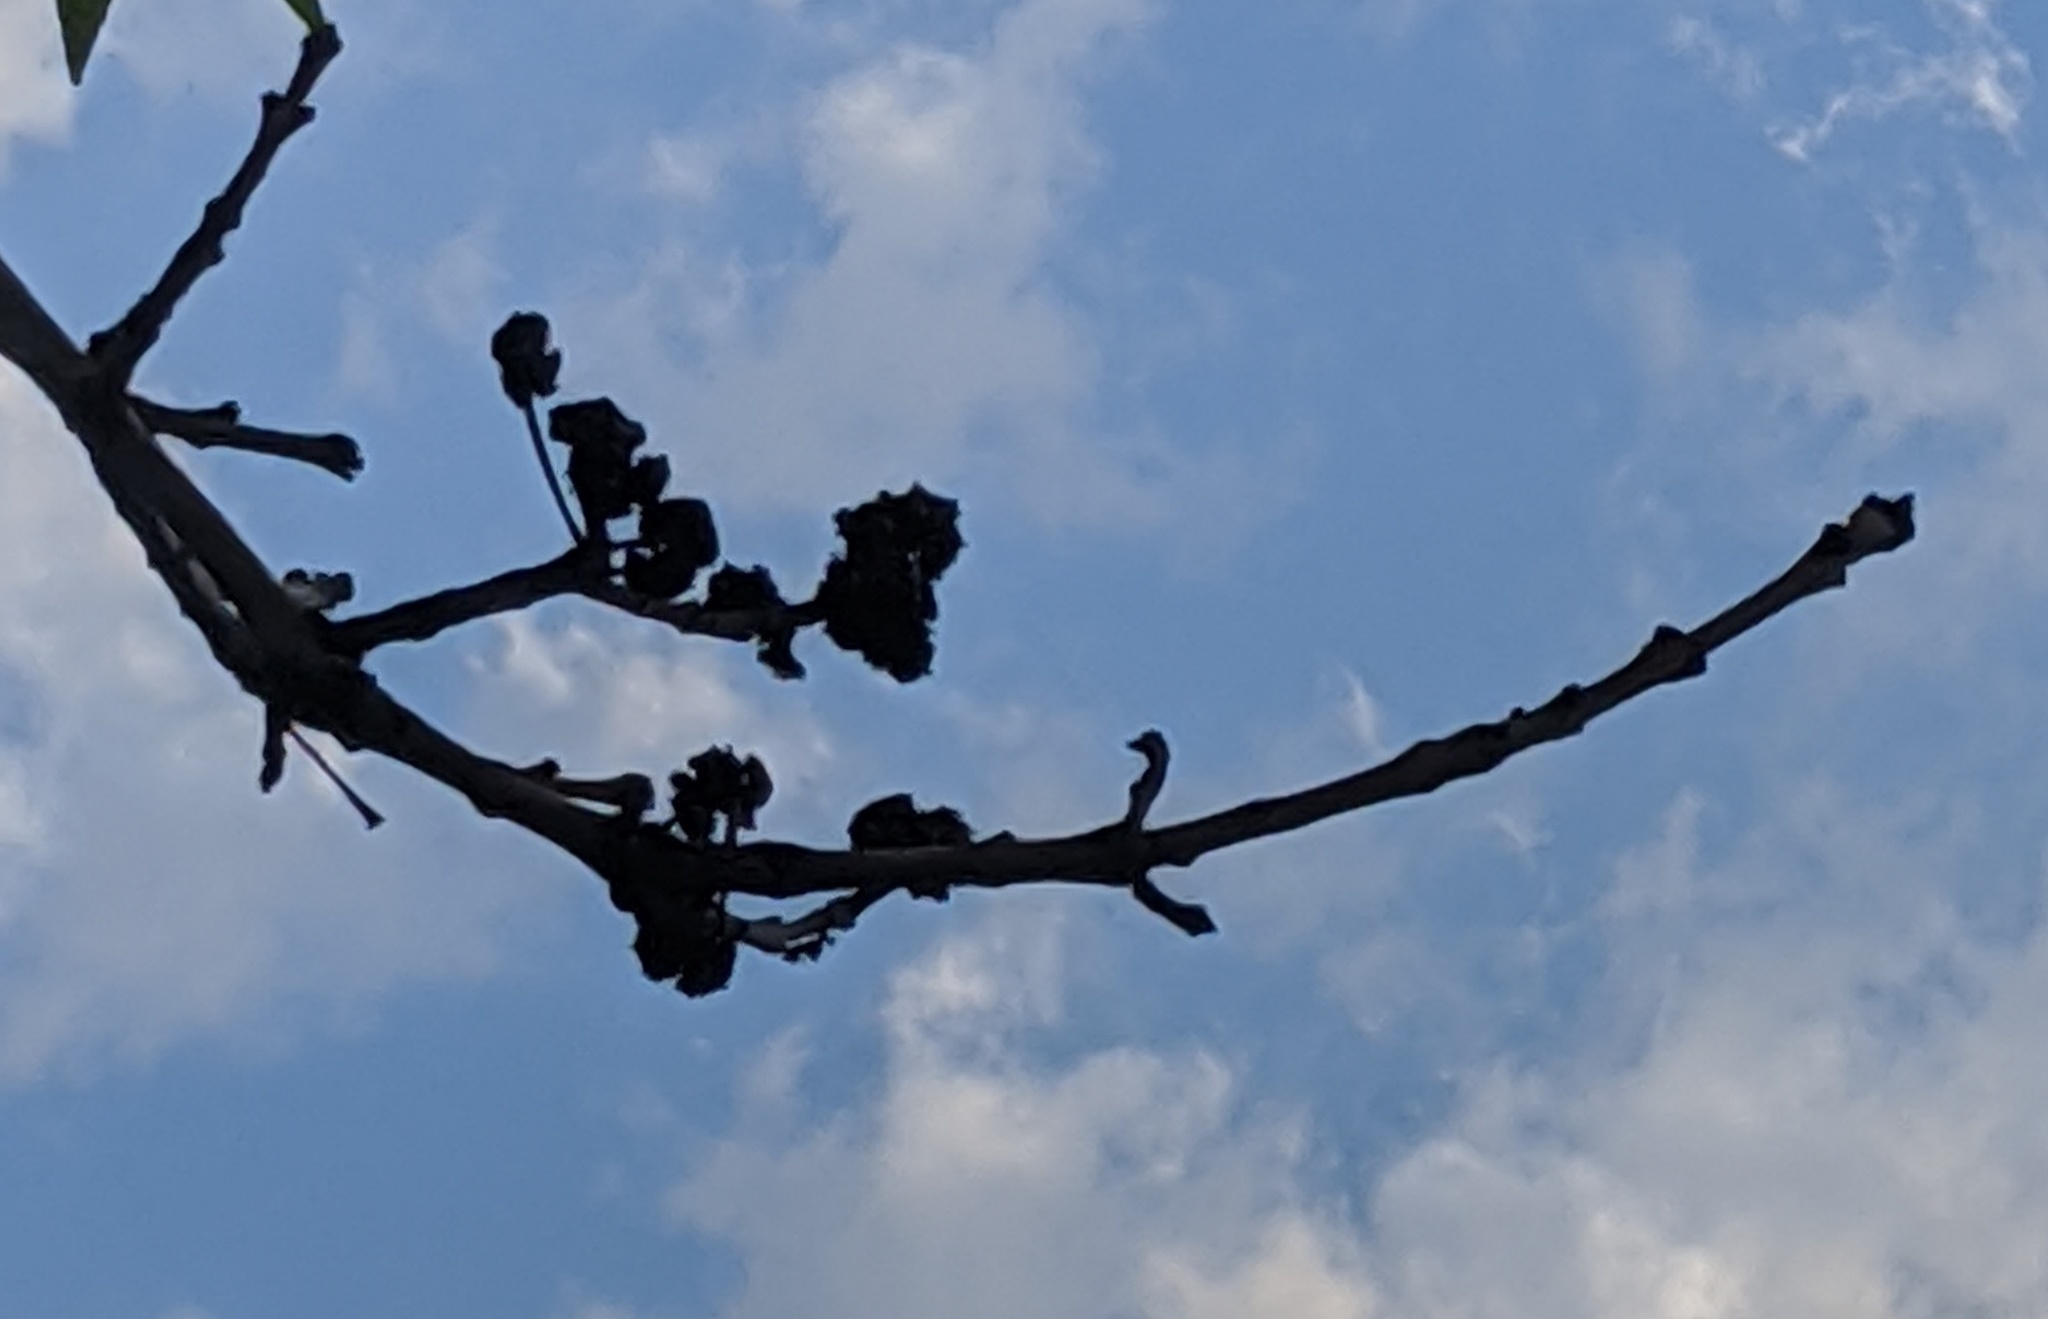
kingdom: Animalia
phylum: Arthropoda
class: Arachnida
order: Trombidiformes
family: Eriophyidae
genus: Aceria
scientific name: Aceria fraxiniflora
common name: Ash flower gall mite
